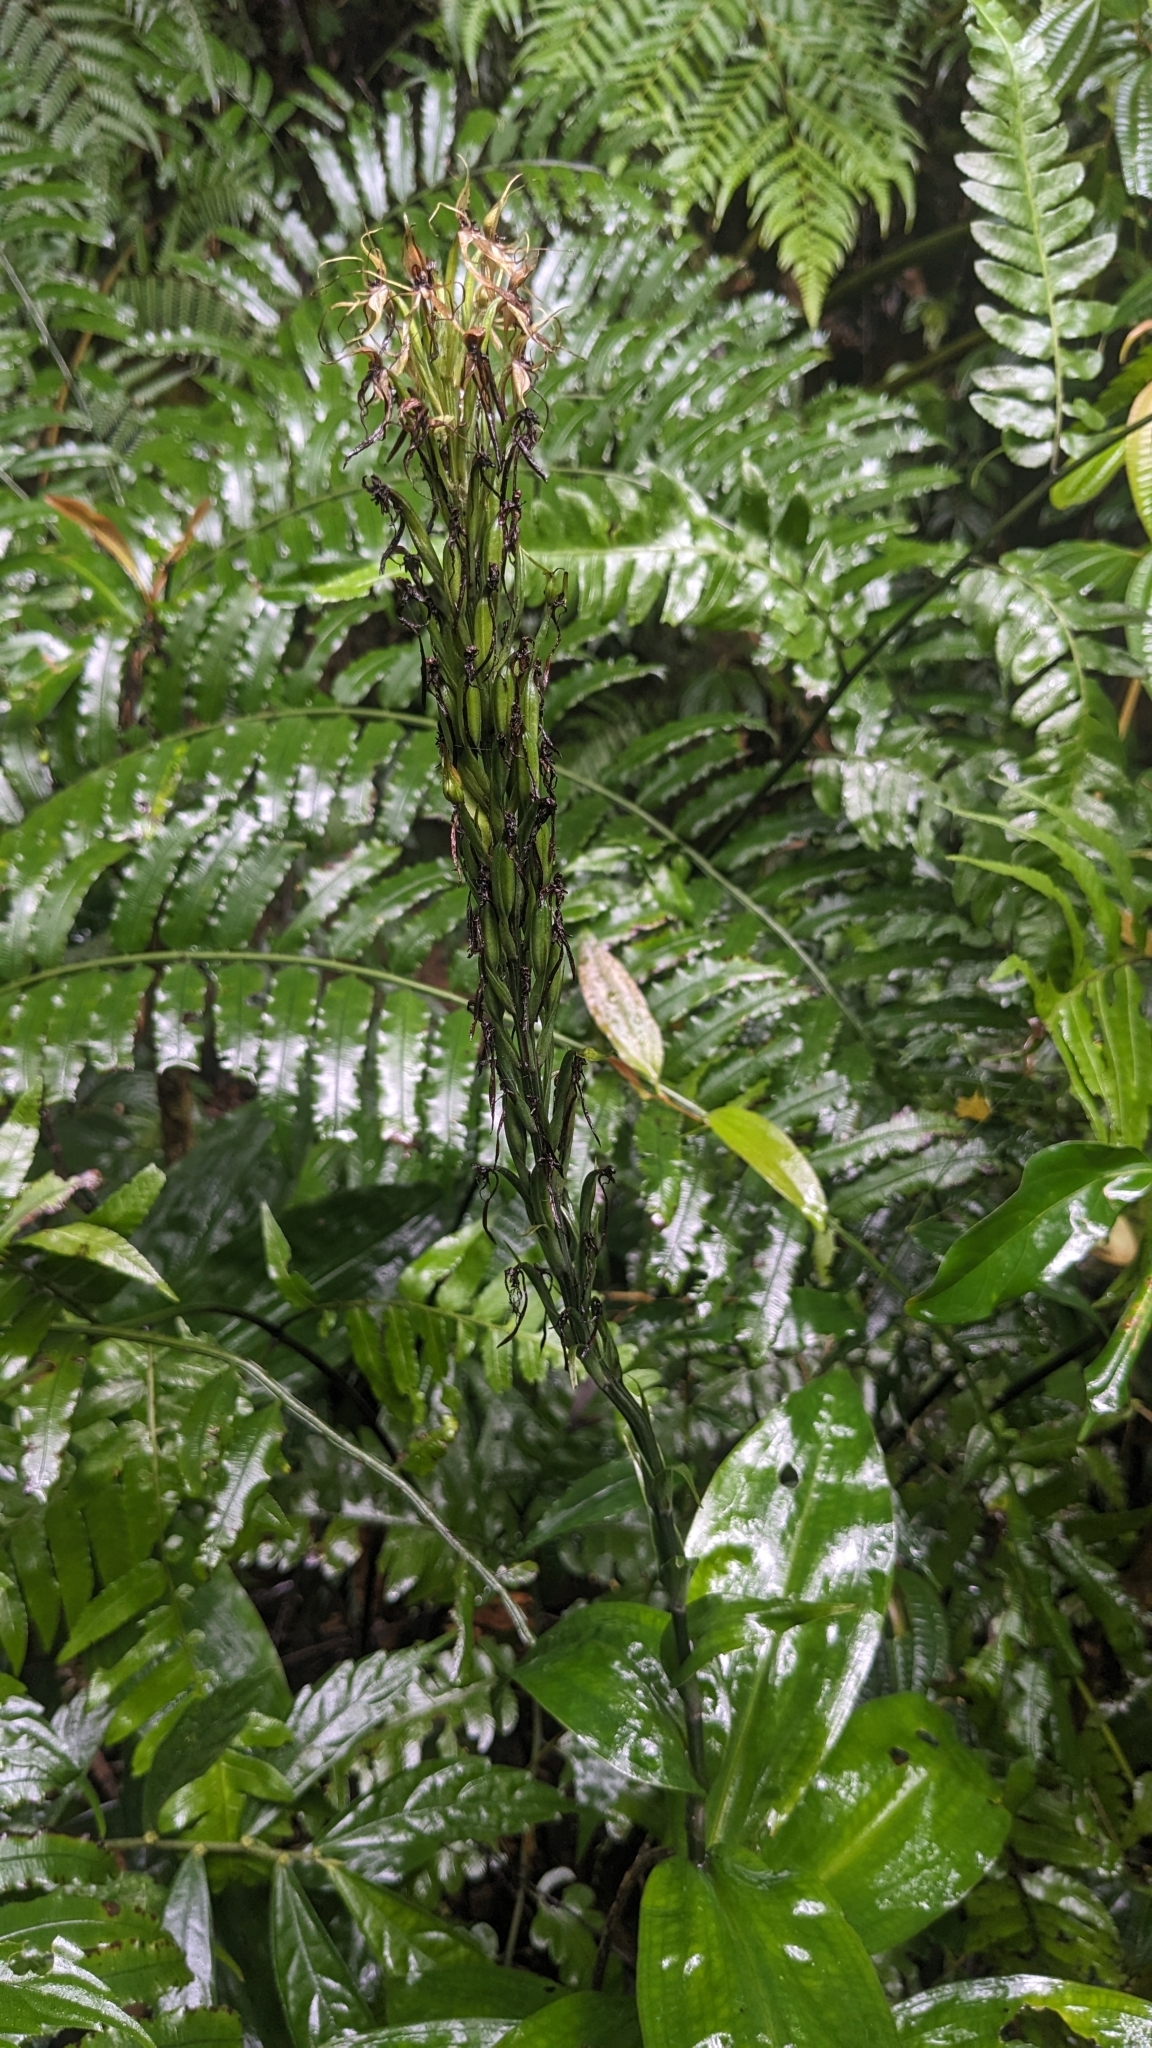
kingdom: Plantae
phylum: Tracheophyta
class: Liliopsida
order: Asparagales
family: Orchidaceae
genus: Habenaria
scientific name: Habenaria pantlingiana
